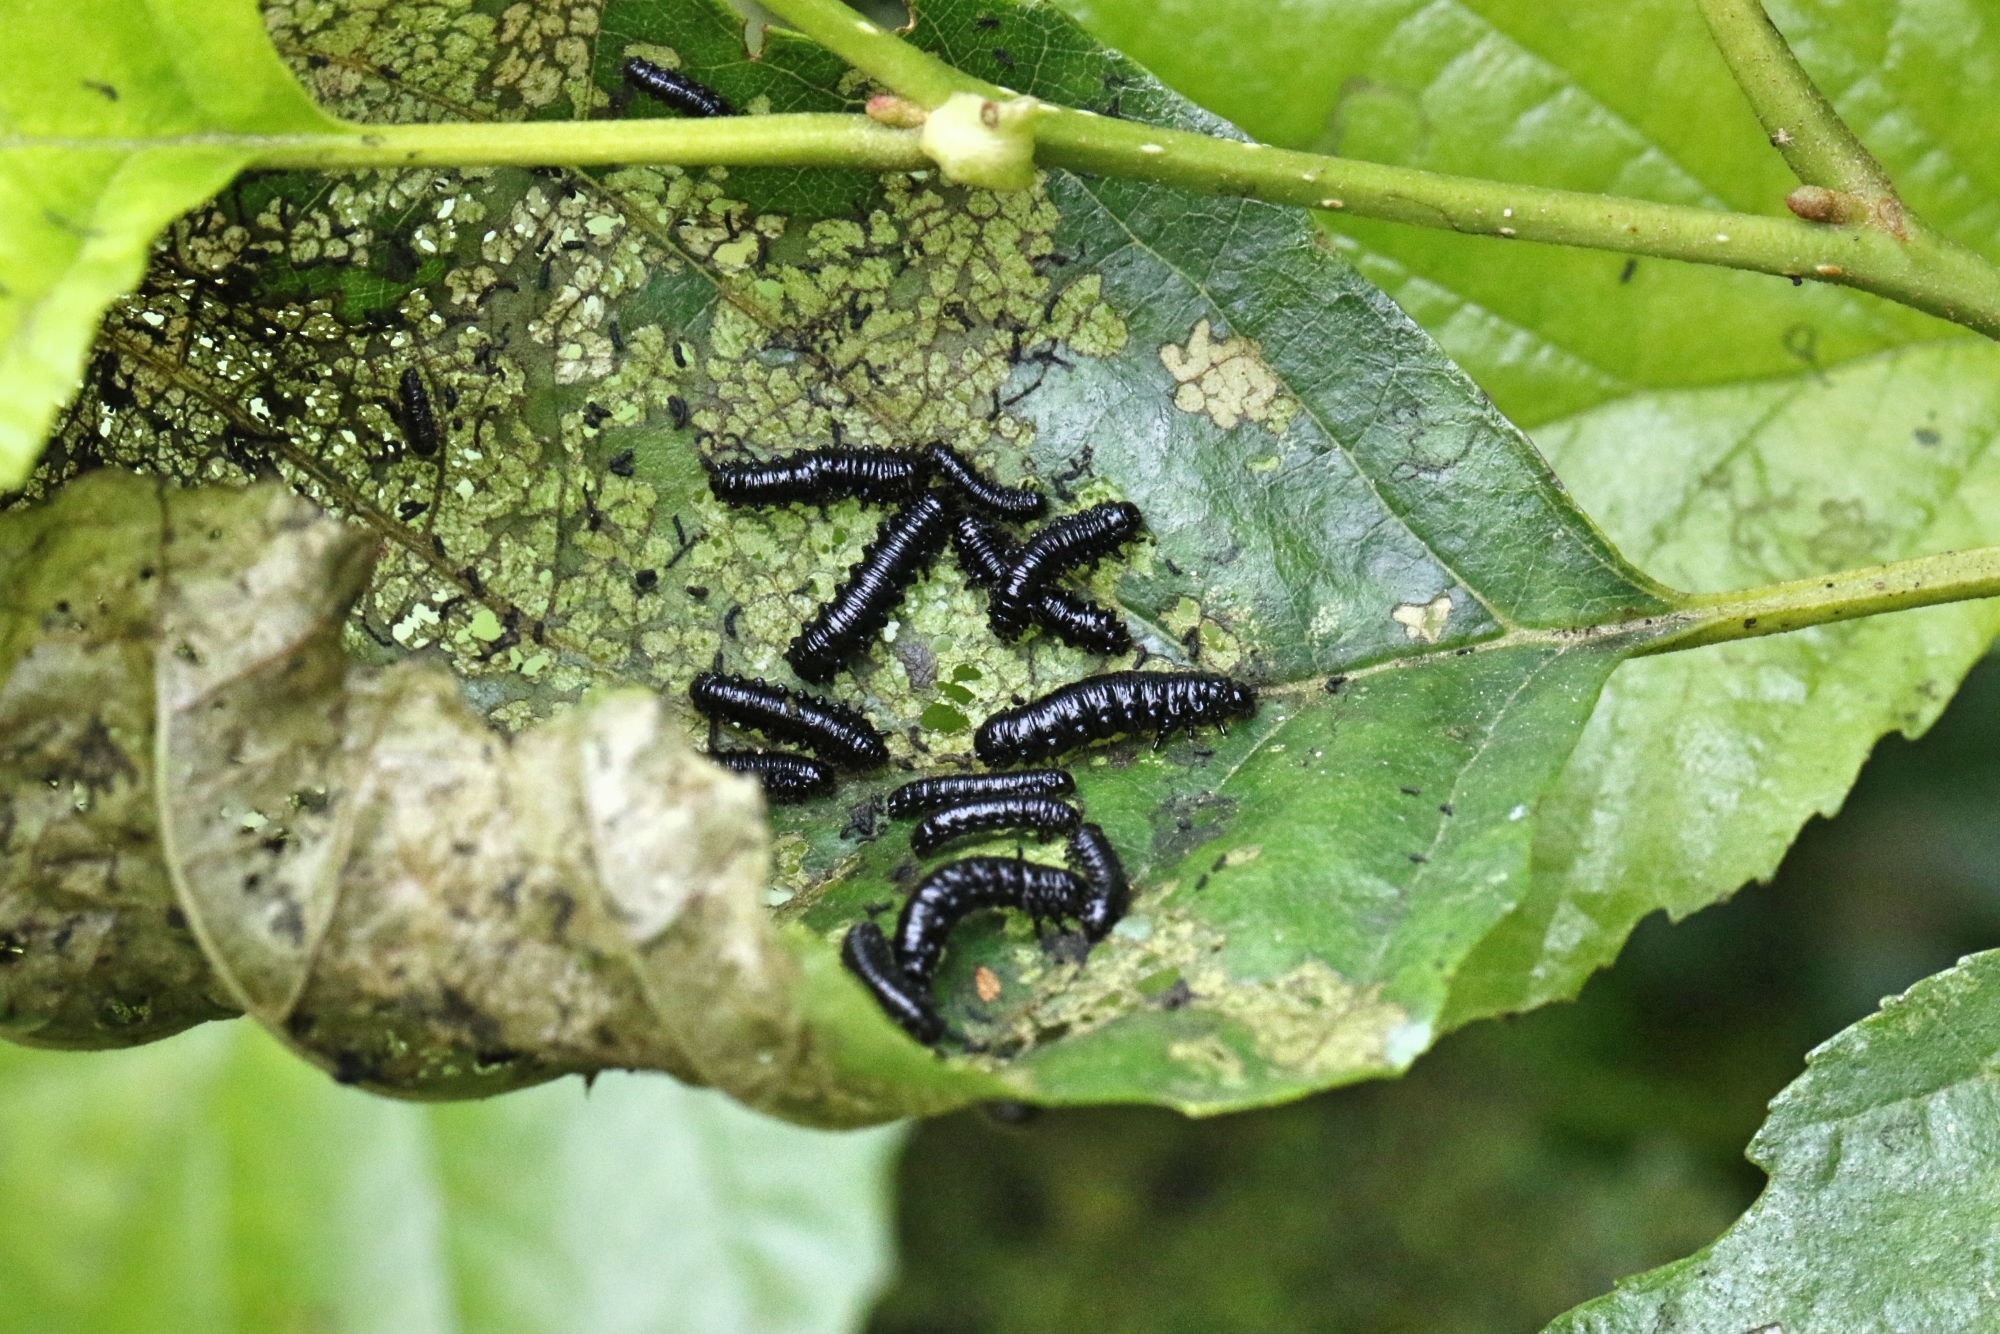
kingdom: Animalia
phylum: Arthropoda
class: Insecta
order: Coleoptera
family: Chrysomelidae
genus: Agelastica
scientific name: Agelastica alni
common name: Alder leaf beetle
